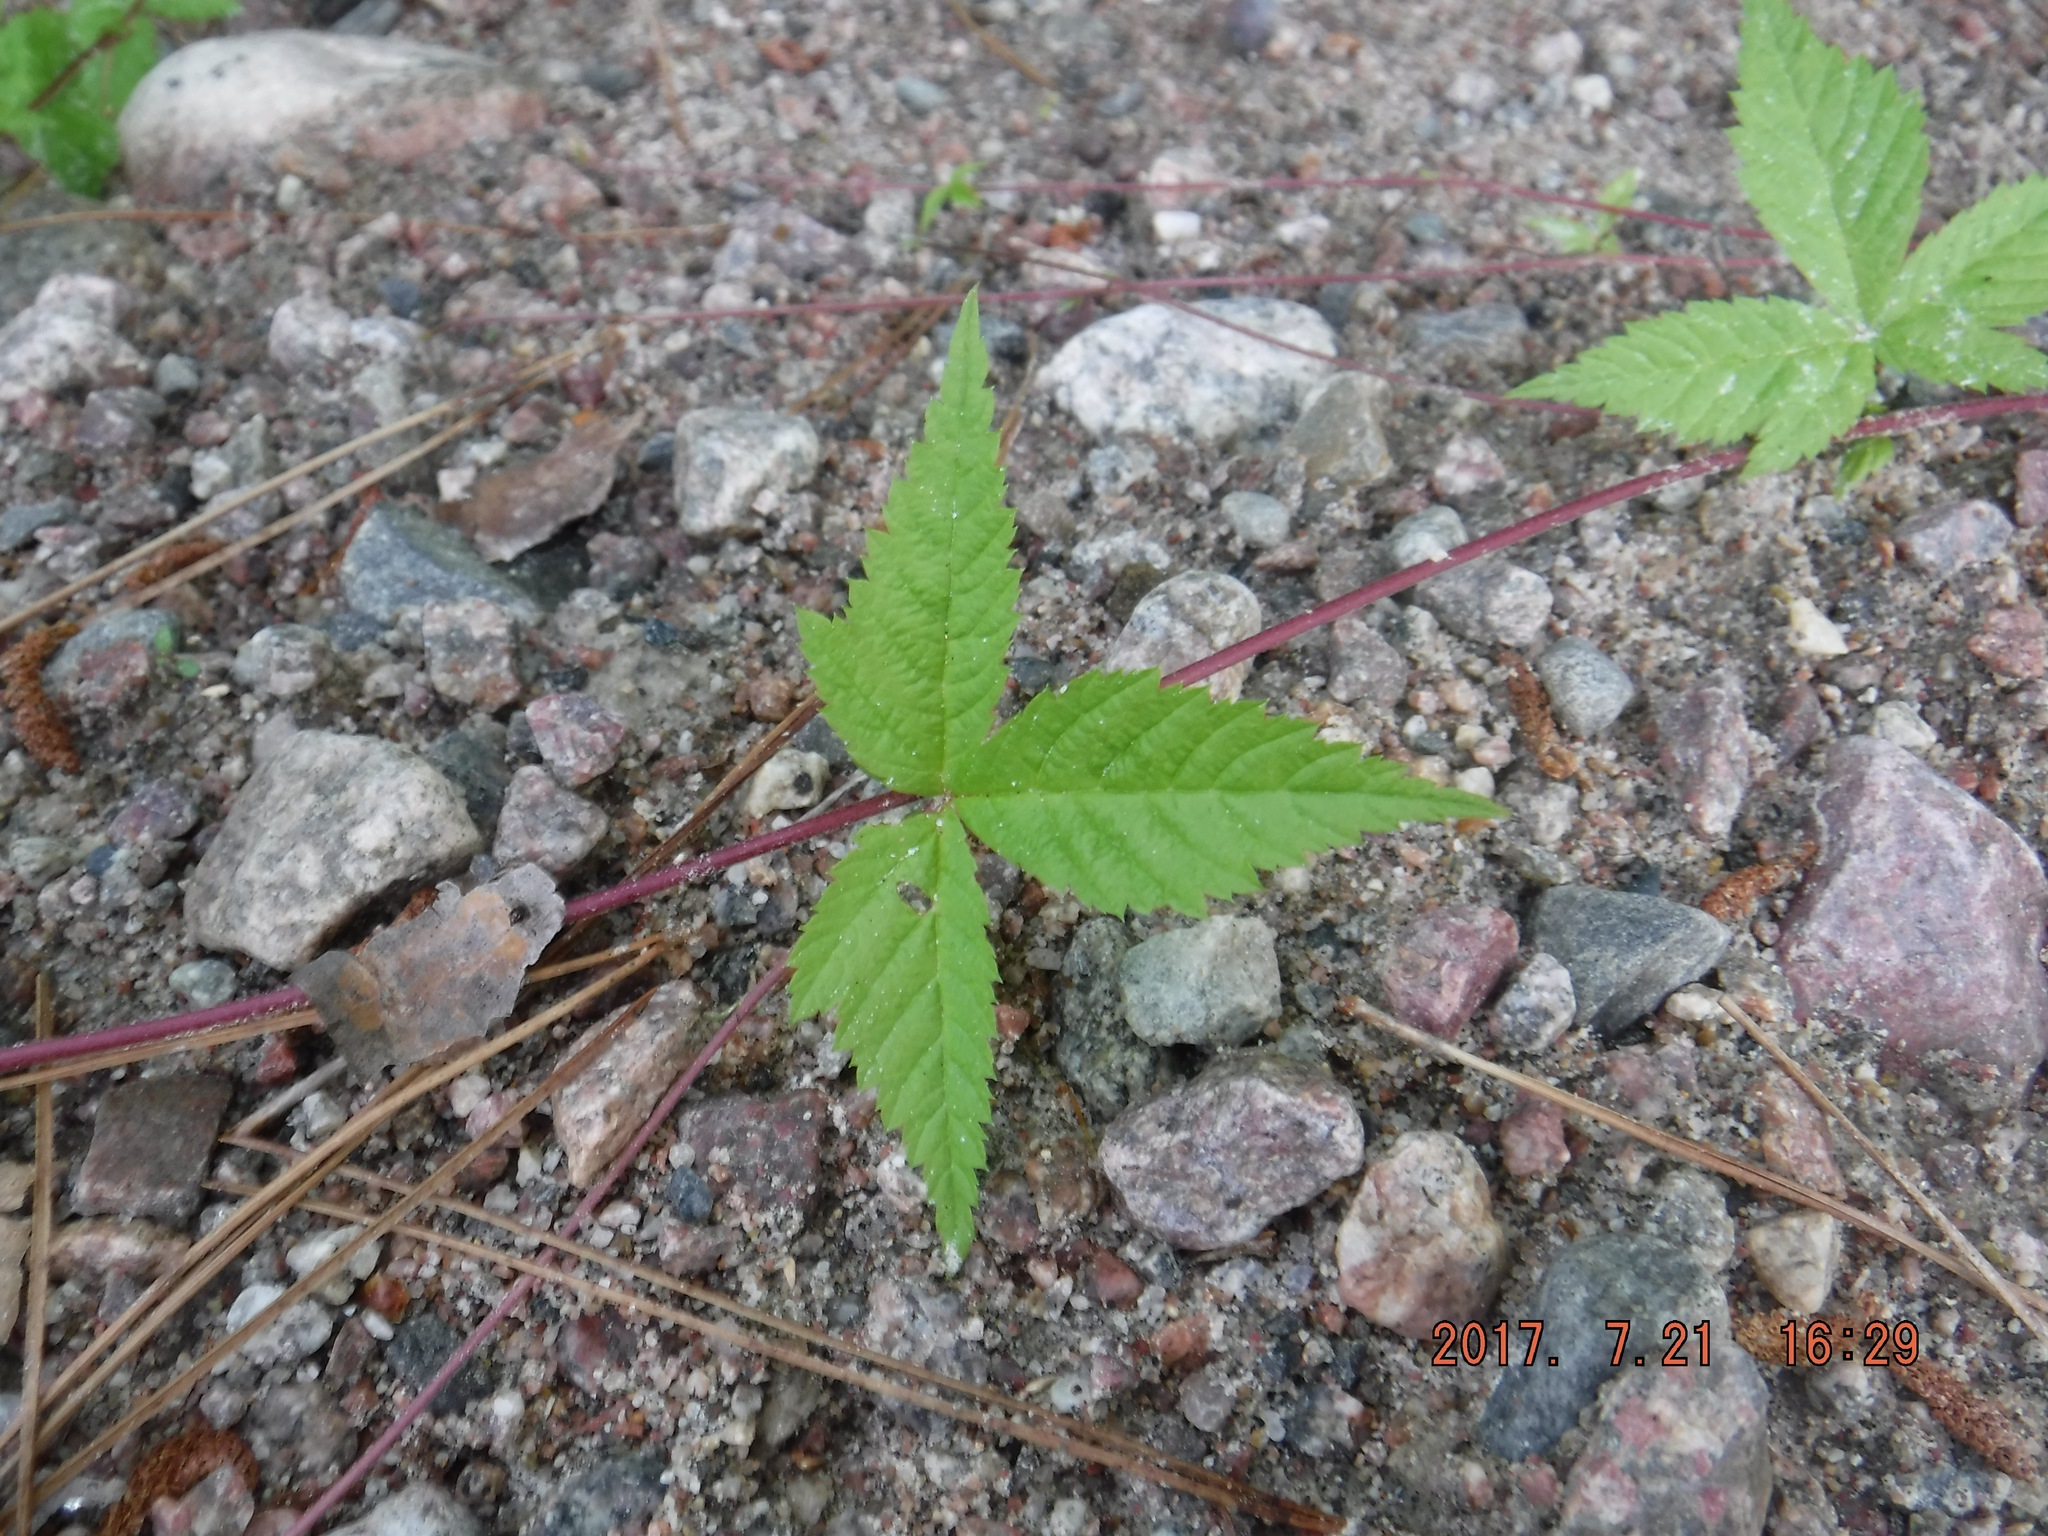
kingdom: Plantae
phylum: Tracheophyta
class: Magnoliopsida
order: Rosales
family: Rosaceae
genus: Rubus
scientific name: Rubus pubescens
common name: Dwarf raspberry
